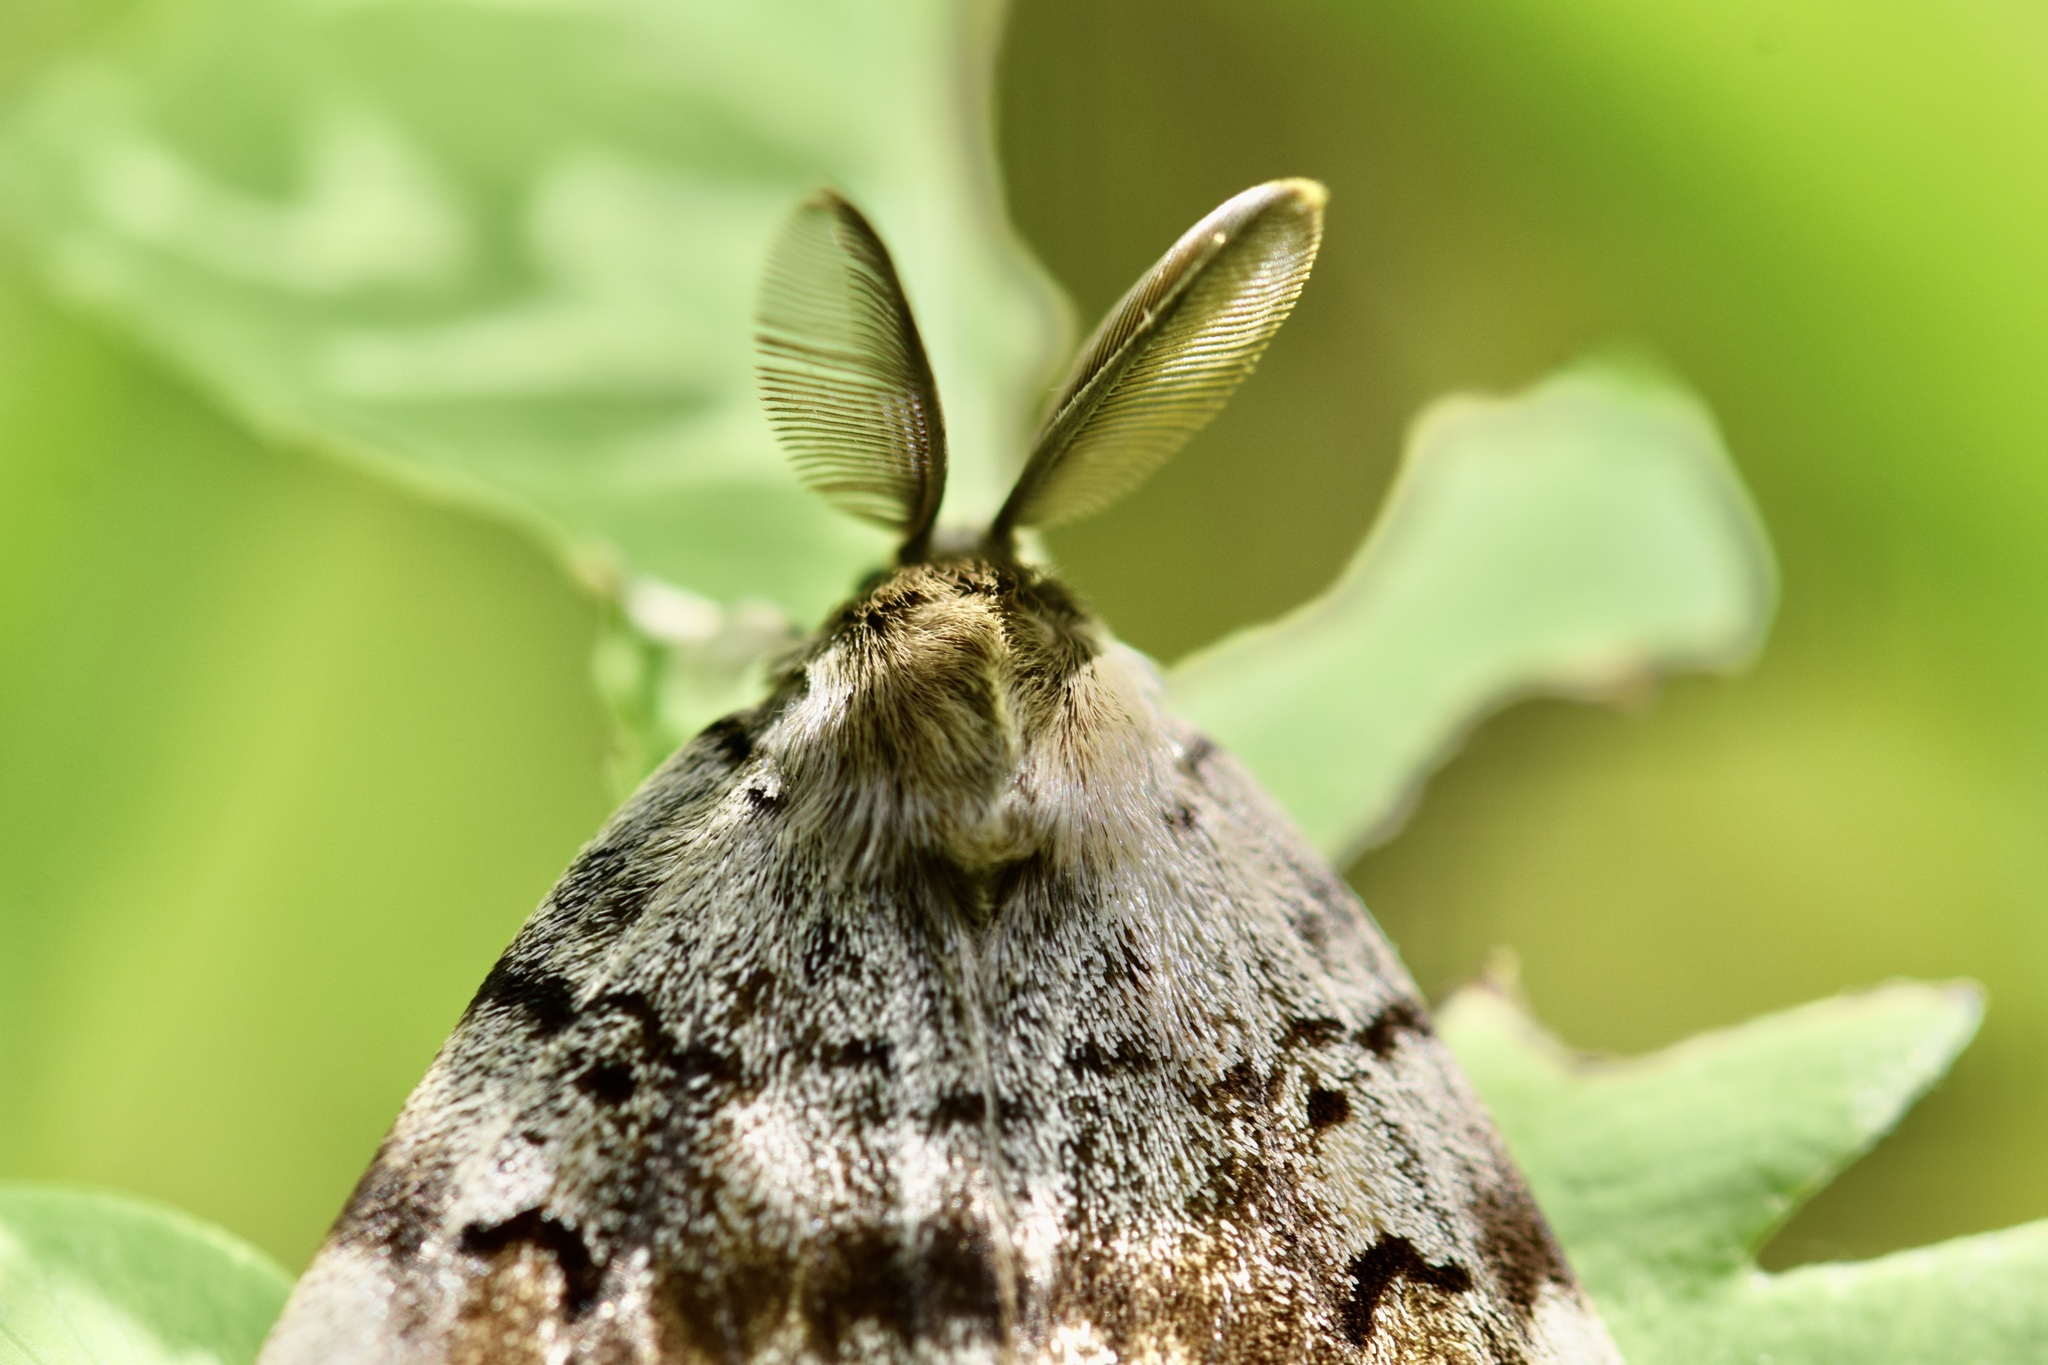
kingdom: Animalia
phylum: Arthropoda
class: Insecta
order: Lepidoptera
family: Erebidae
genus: Lymantria
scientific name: Lymantria dispar
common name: Gypsy moth
